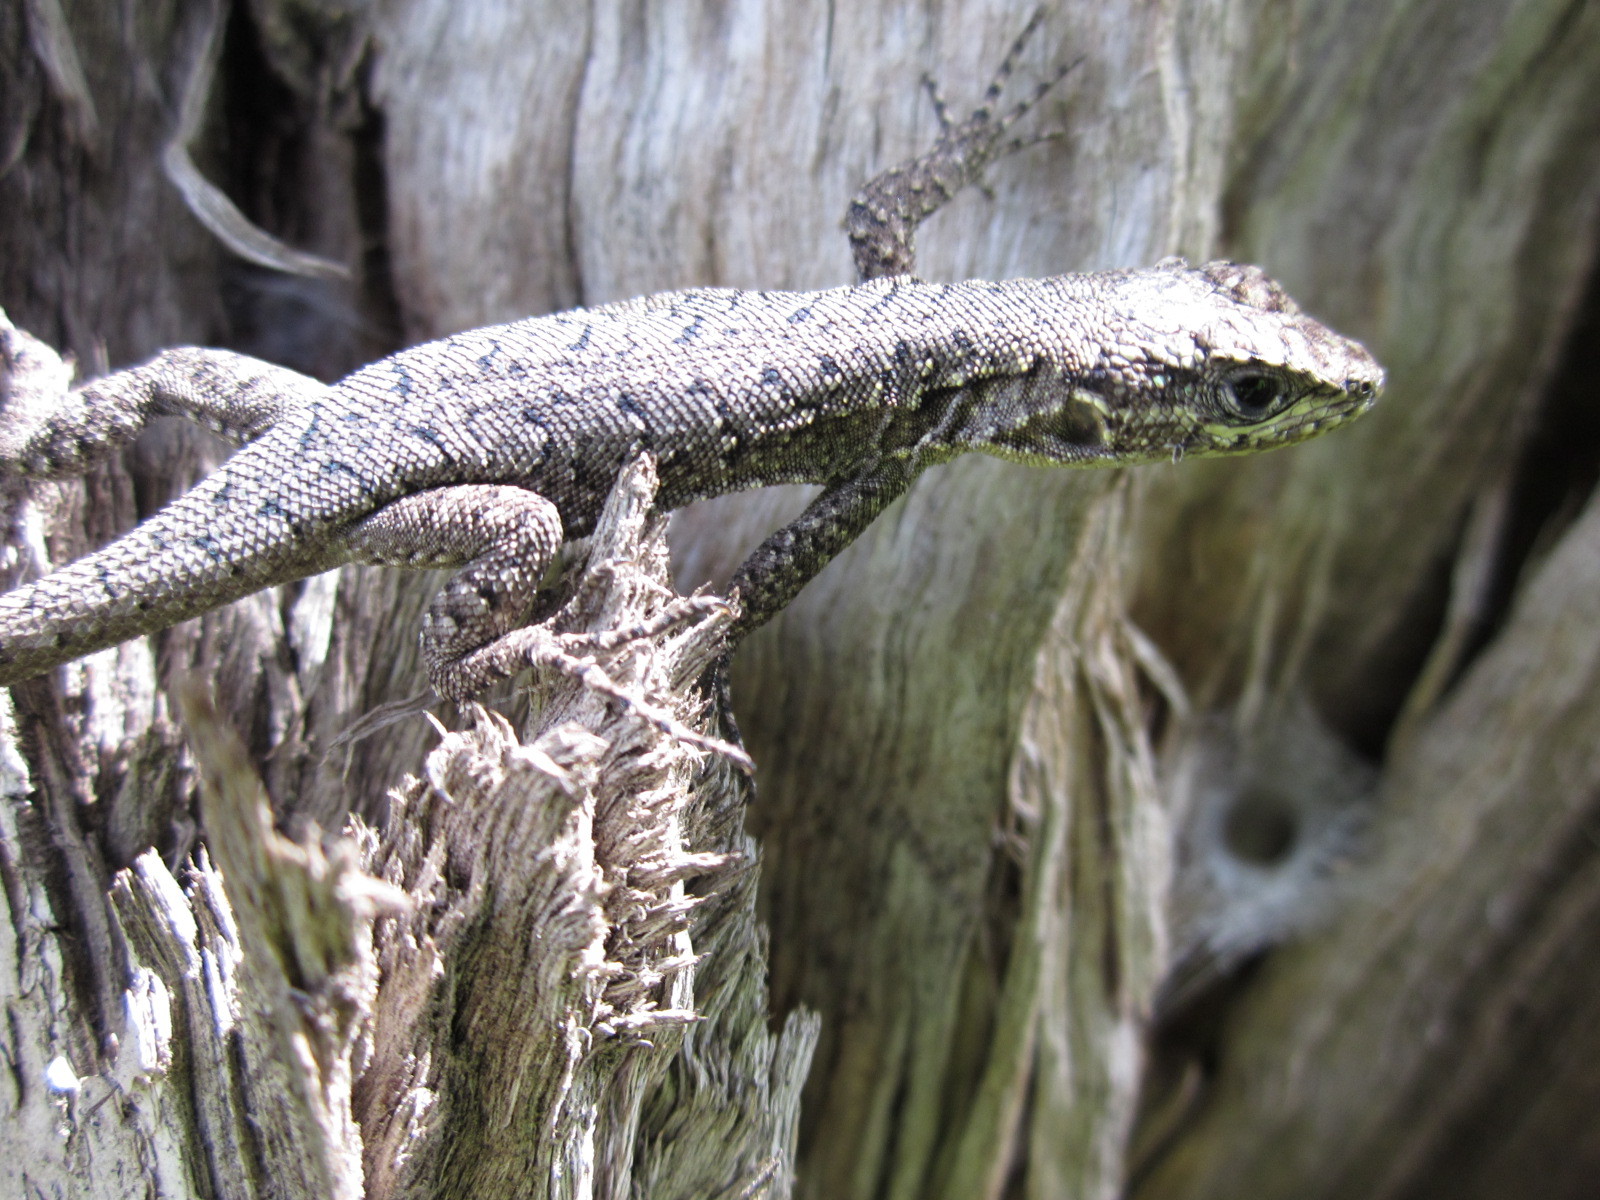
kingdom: Animalia
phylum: Chordata
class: Squamata
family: Liolaemidae
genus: Liolaemus
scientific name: Liolaemus tenuis
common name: Thin tree iguana
